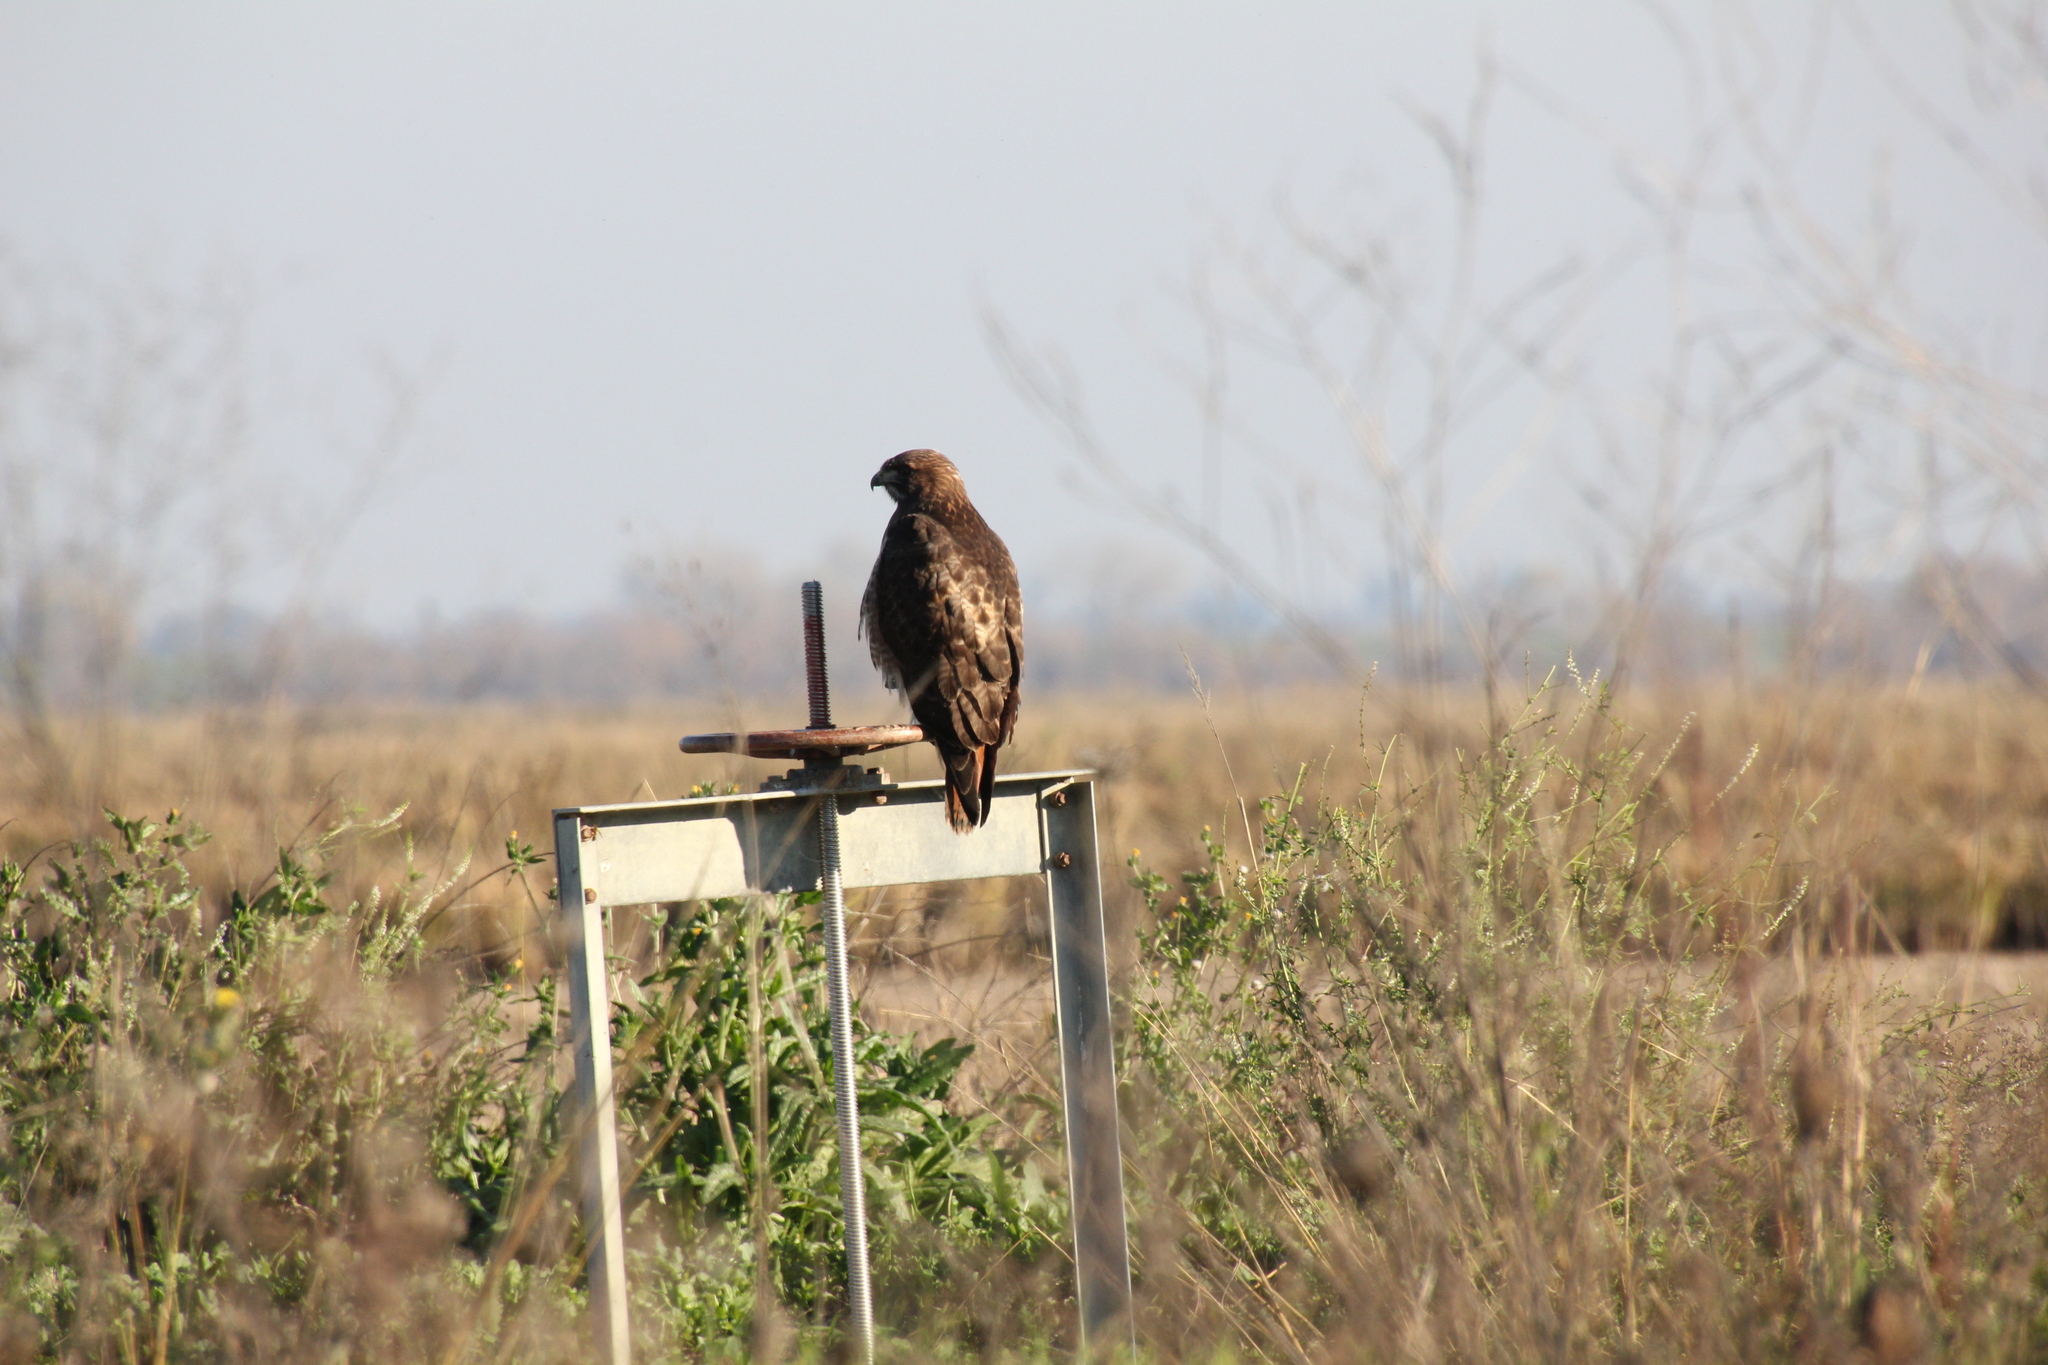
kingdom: Animalia
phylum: Chordata
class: Aves
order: Accipitriformes
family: Accipitridae
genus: Buteo
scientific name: Buteo jamaicensis
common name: Red-tailed hawk
